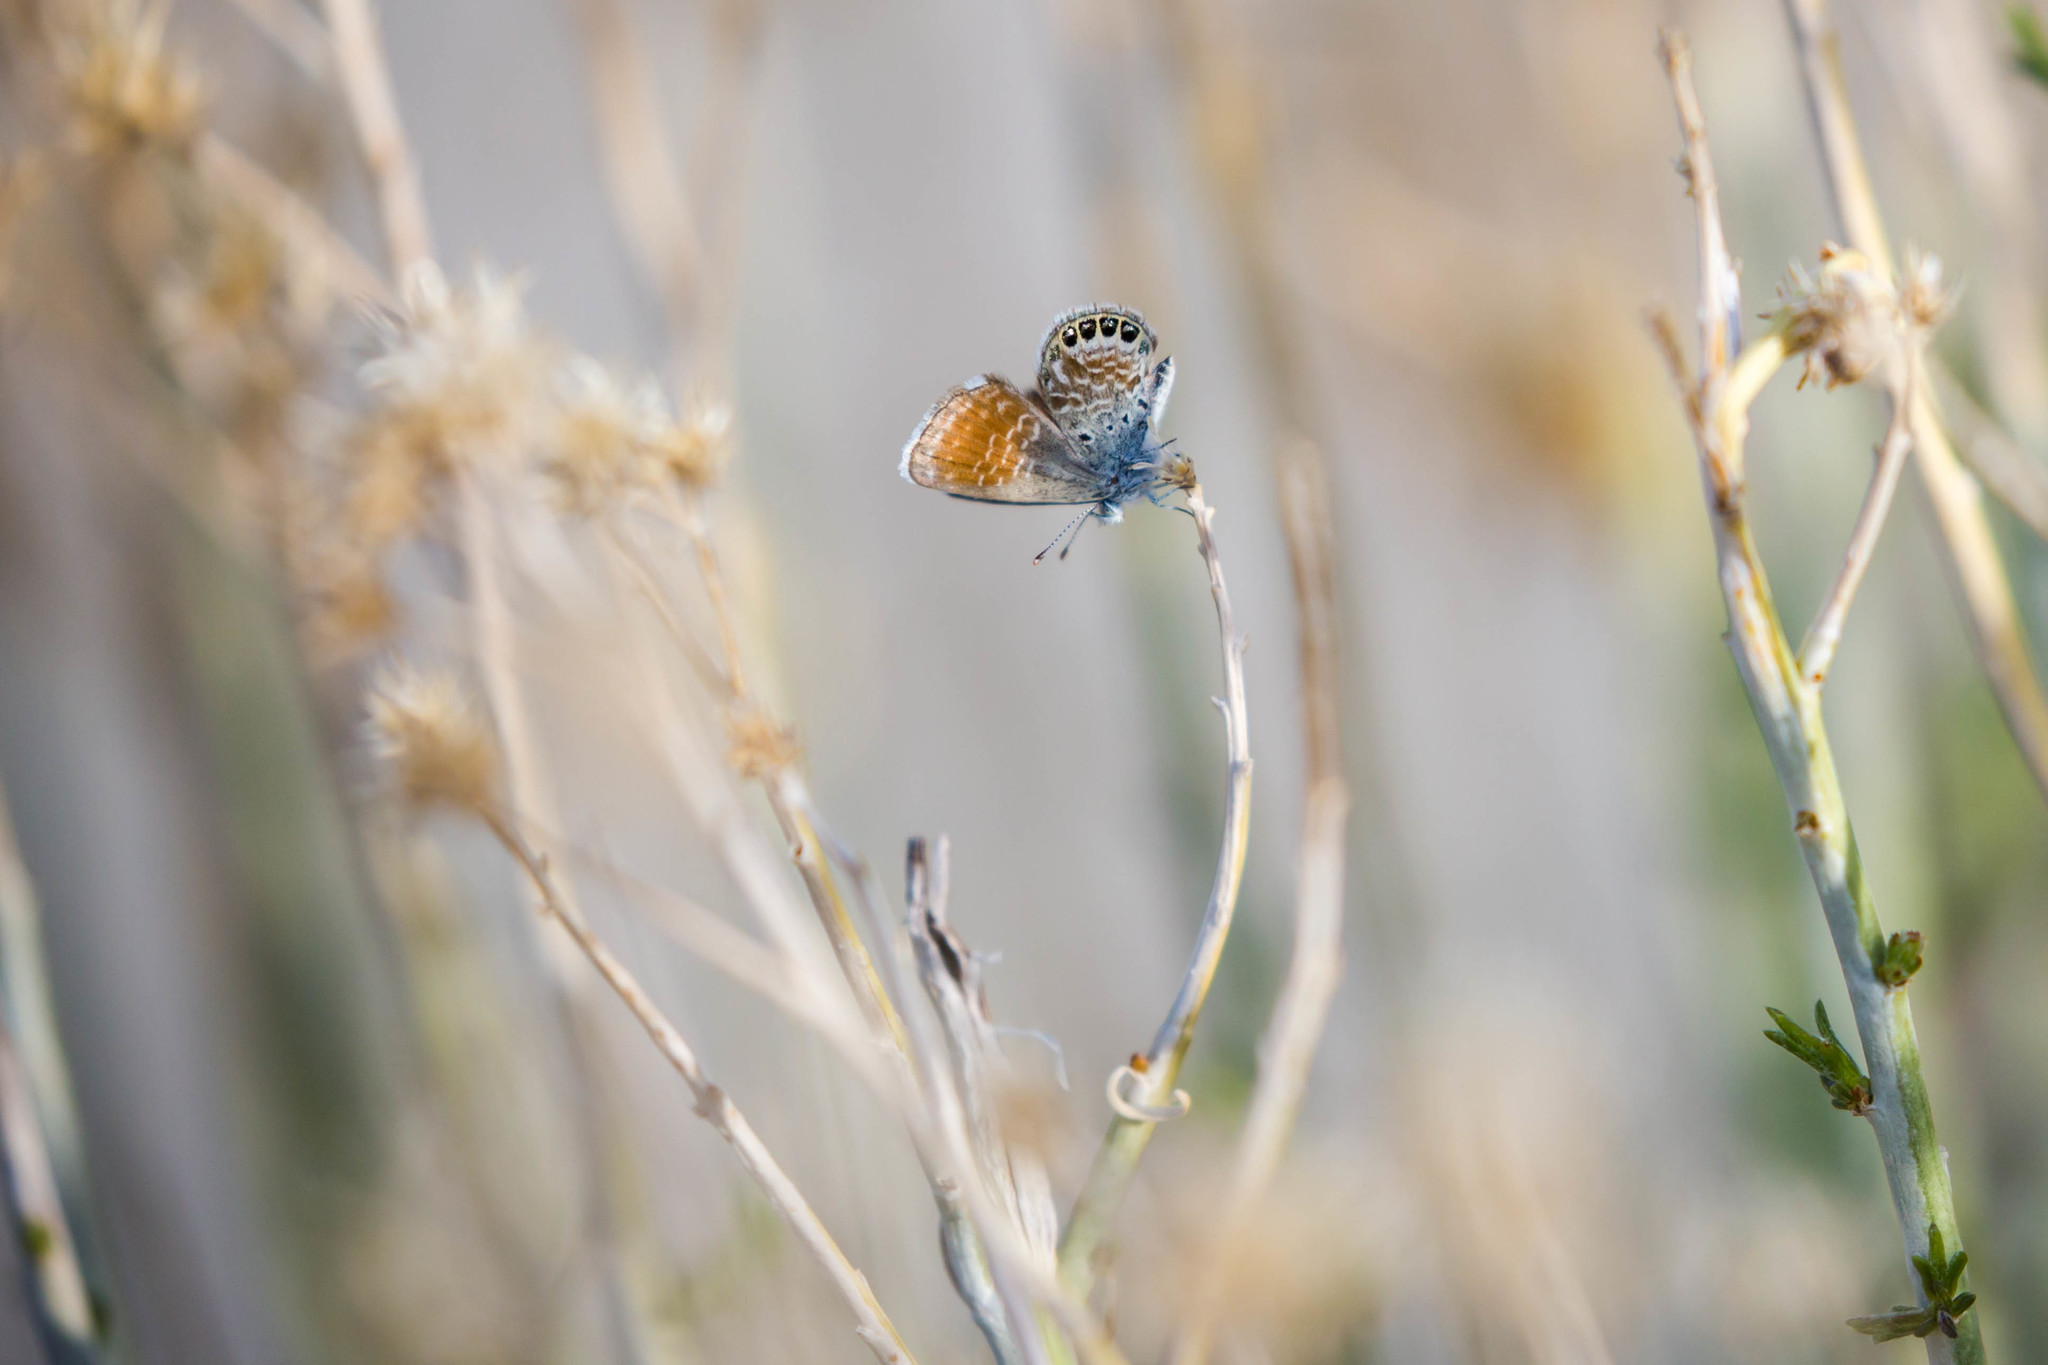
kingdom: Animalia
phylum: Arthropoda
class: Insecta
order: Lepidoptera
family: Lycaenidae
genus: Brephidium
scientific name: Brephidium exilis
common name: Pygmy blue
